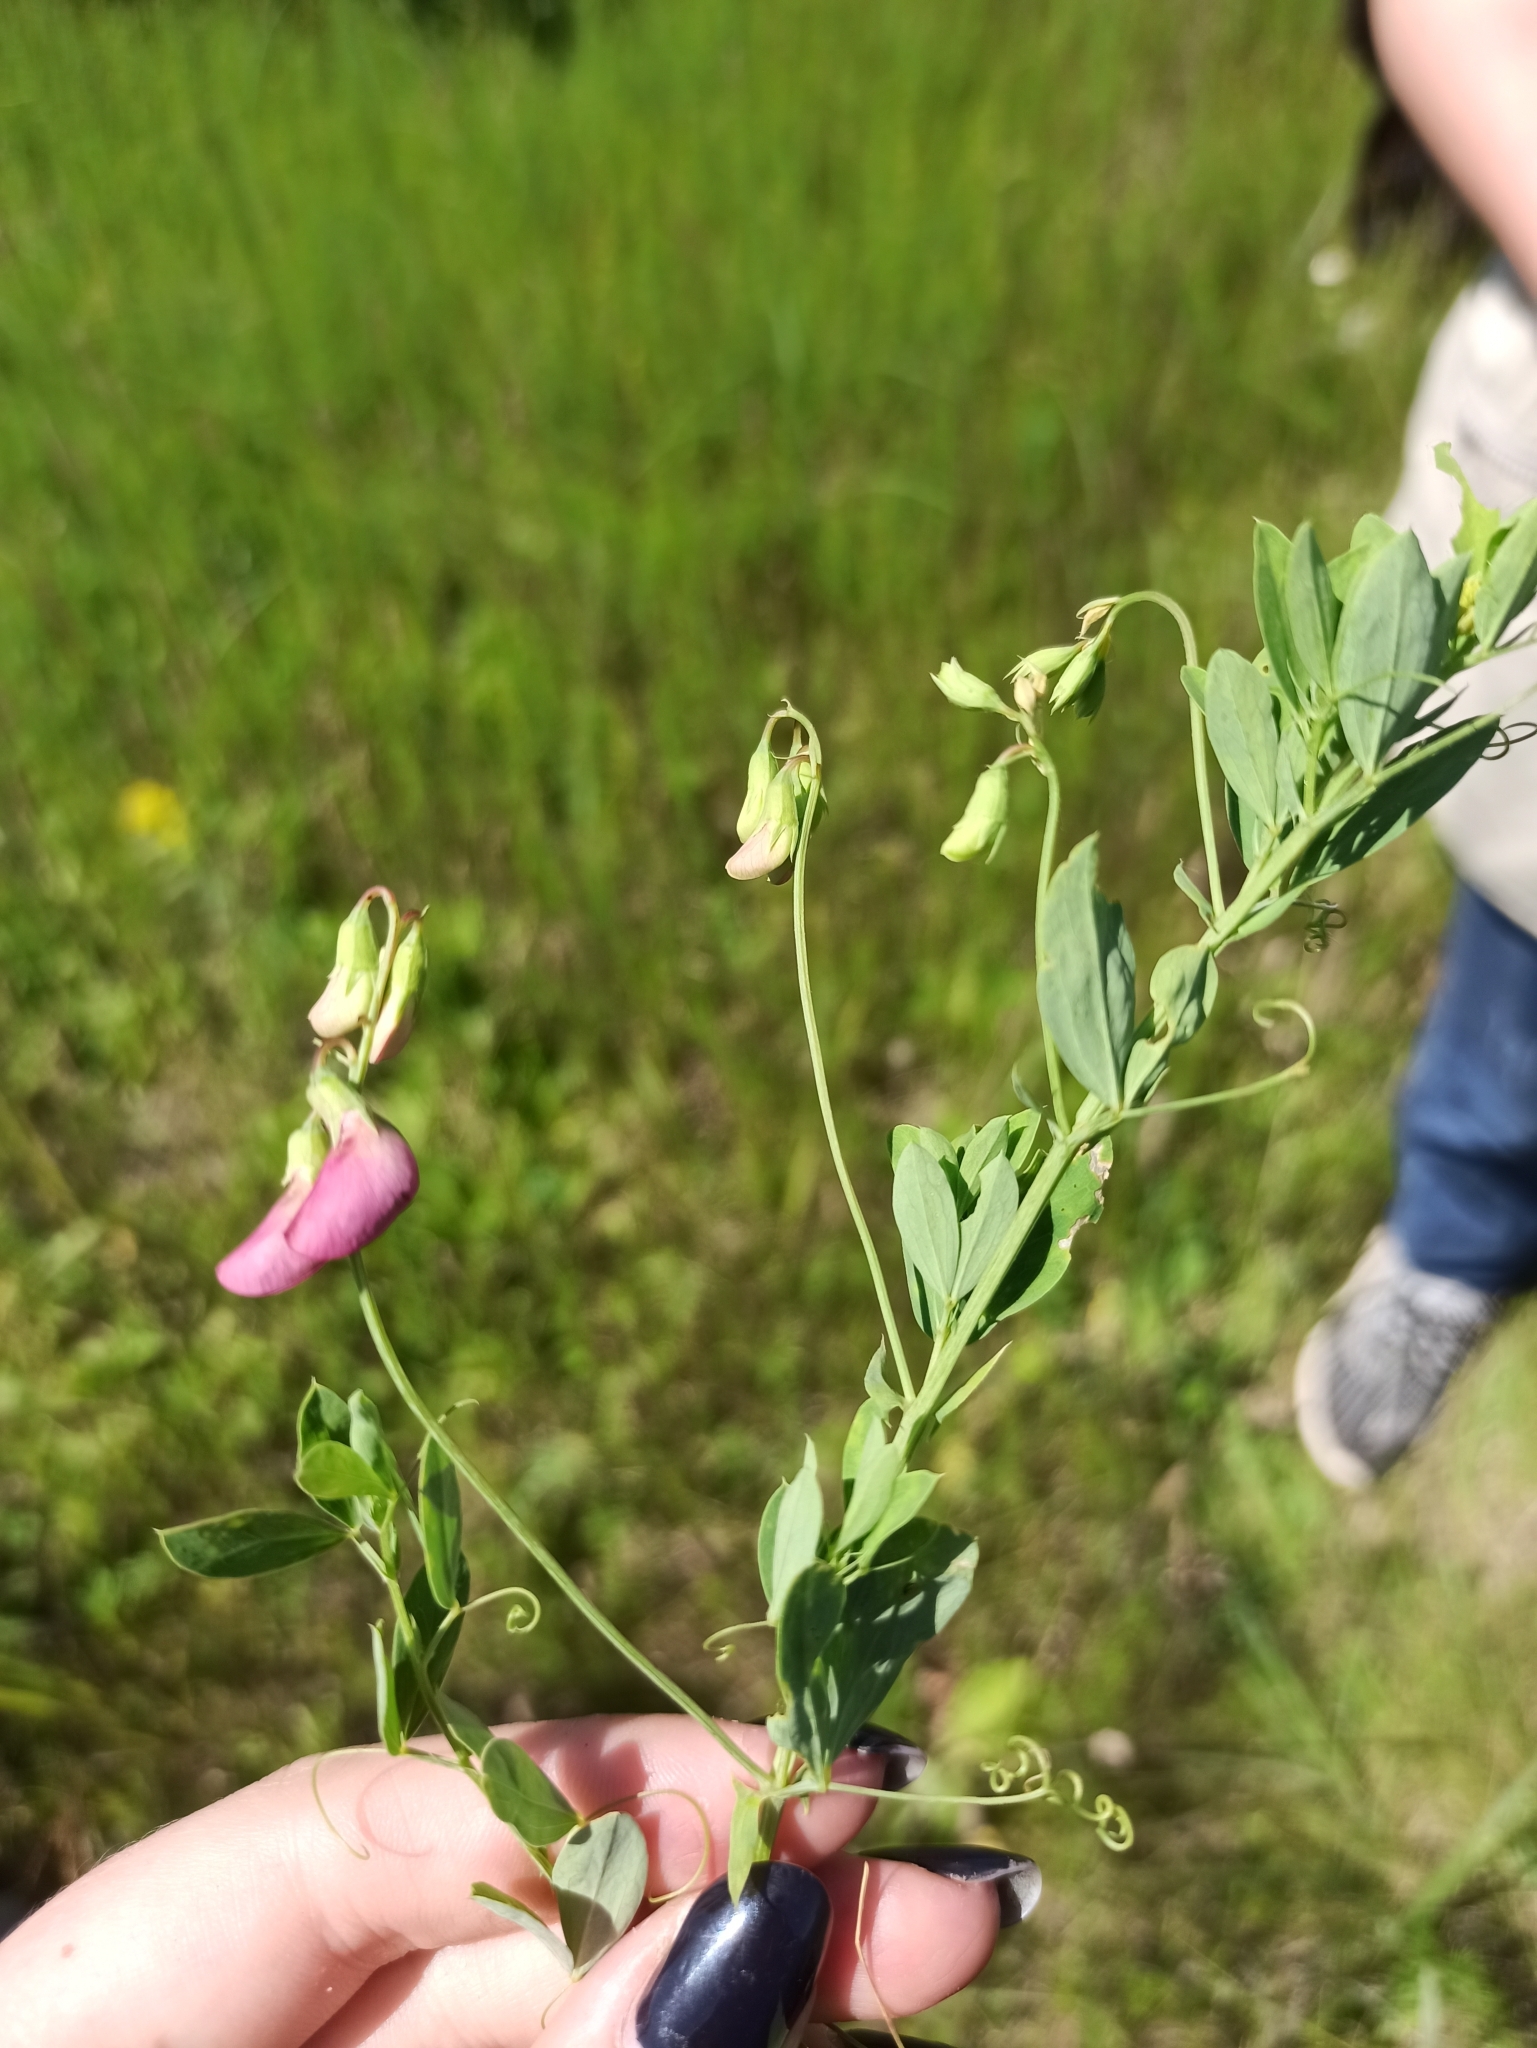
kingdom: Plantae
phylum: Tracheophyta
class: Magnoliopsida
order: Fabales
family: Fabaceae
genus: Lathyrus
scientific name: Lathyrus tuberosus
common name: Tuberous pea
